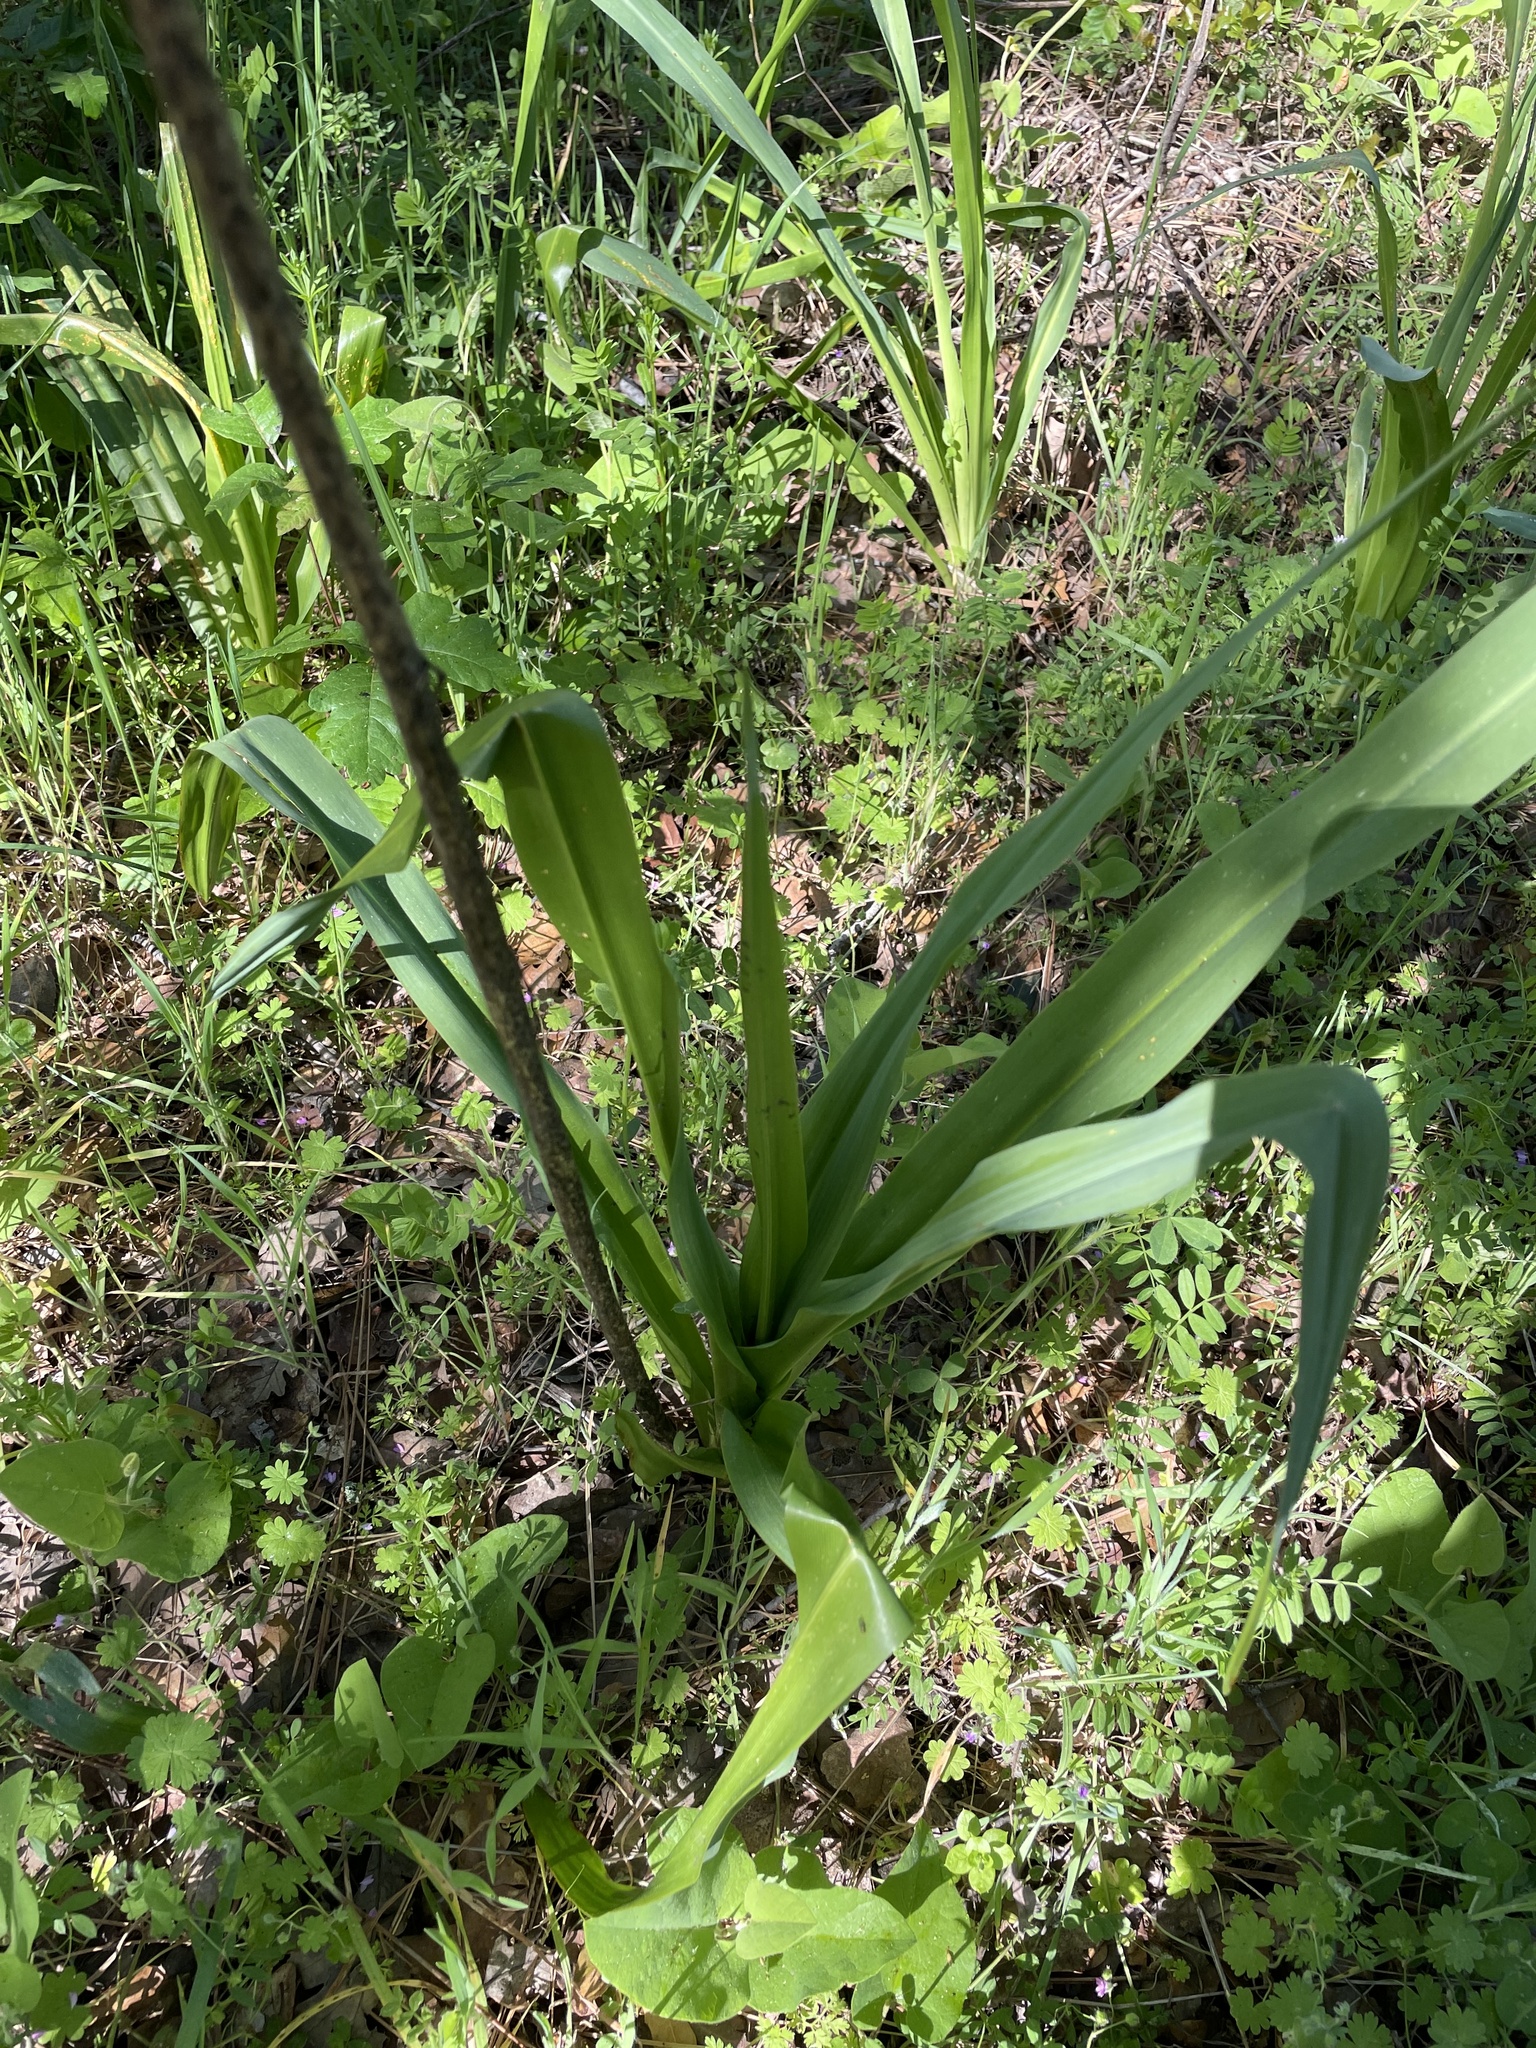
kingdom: Plantae
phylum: Tracheophyta
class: Liliopsida
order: Asparagales
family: Asparagaceae
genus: Chlorogalum
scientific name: Chlorogalum pomeridianum
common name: Amole
